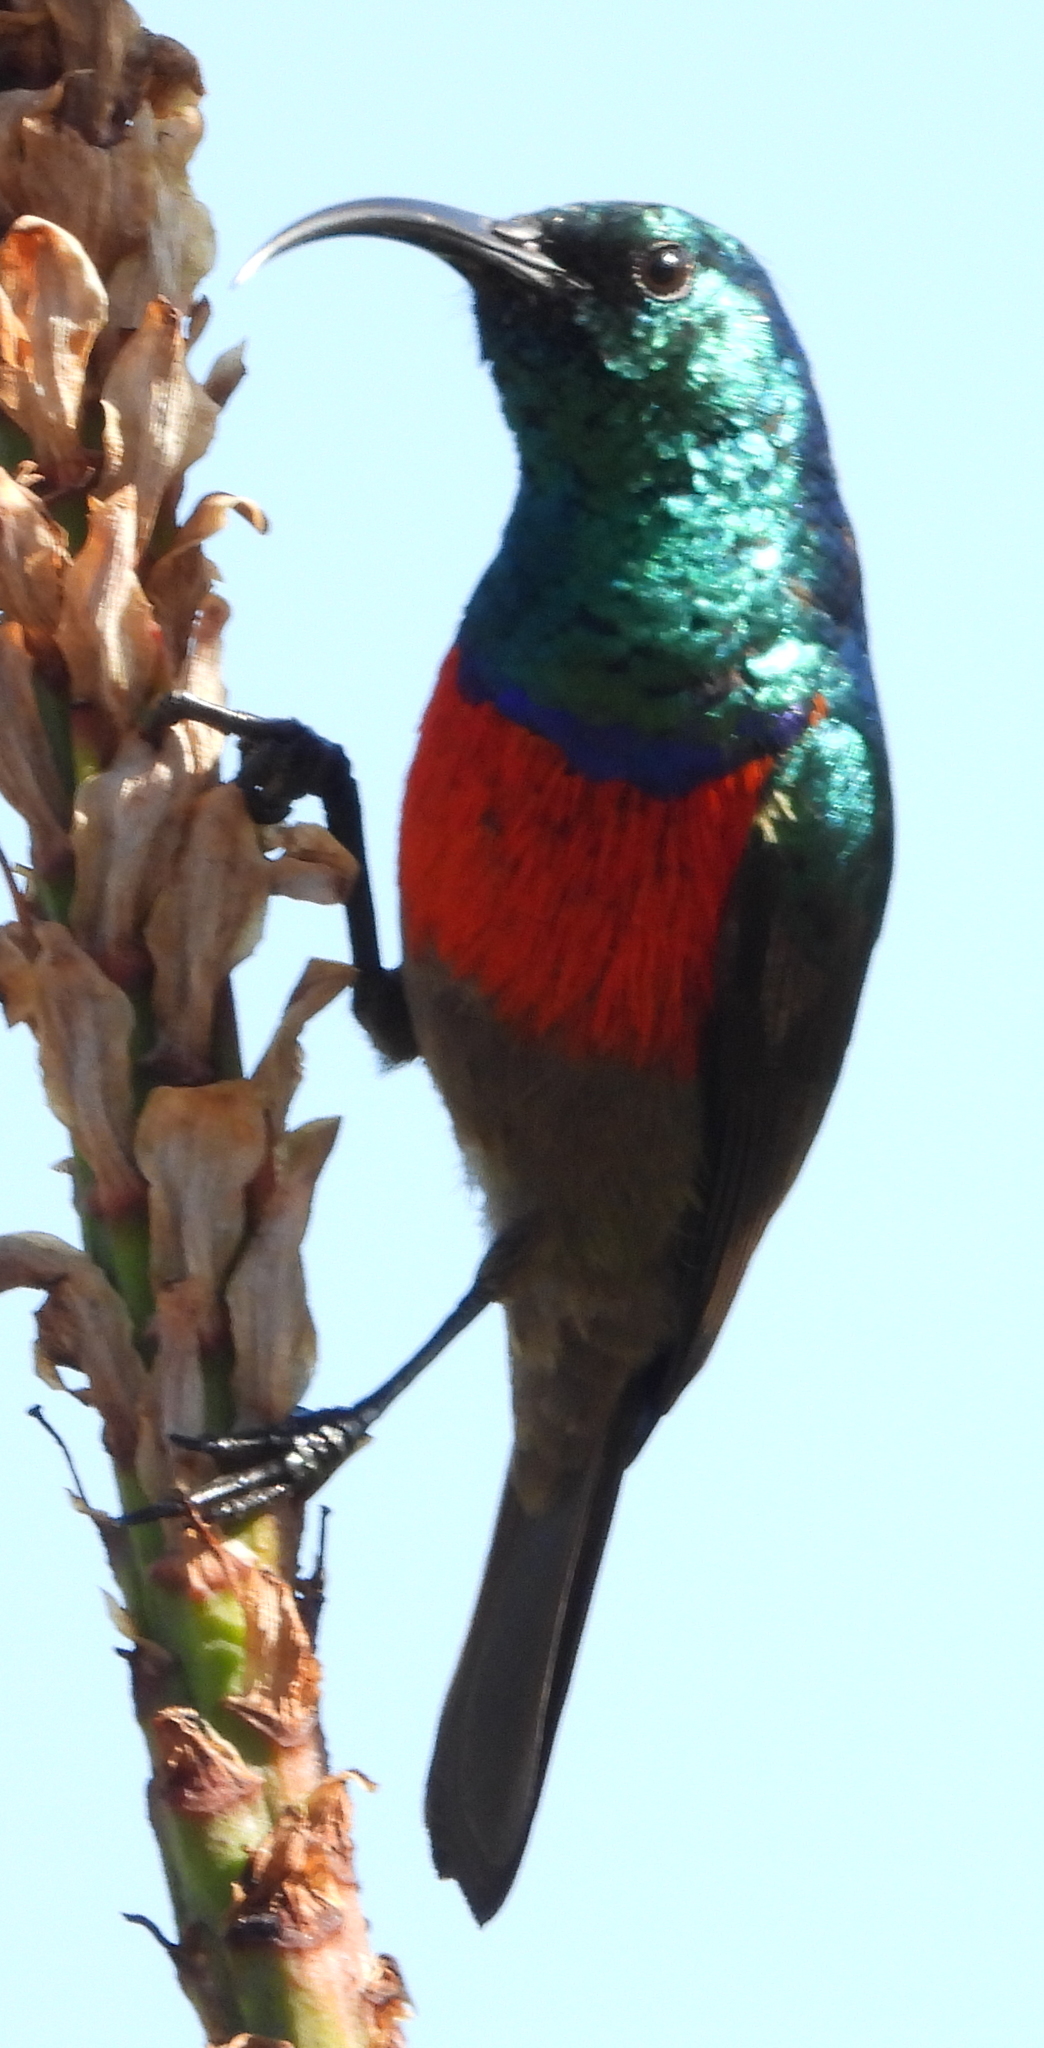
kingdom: Animalia
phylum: Chordata
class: Aves
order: Passeriformes
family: Nectariniidae
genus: Cinnyris
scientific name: Cinnyris afer
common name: Greater double-collared sunbird
